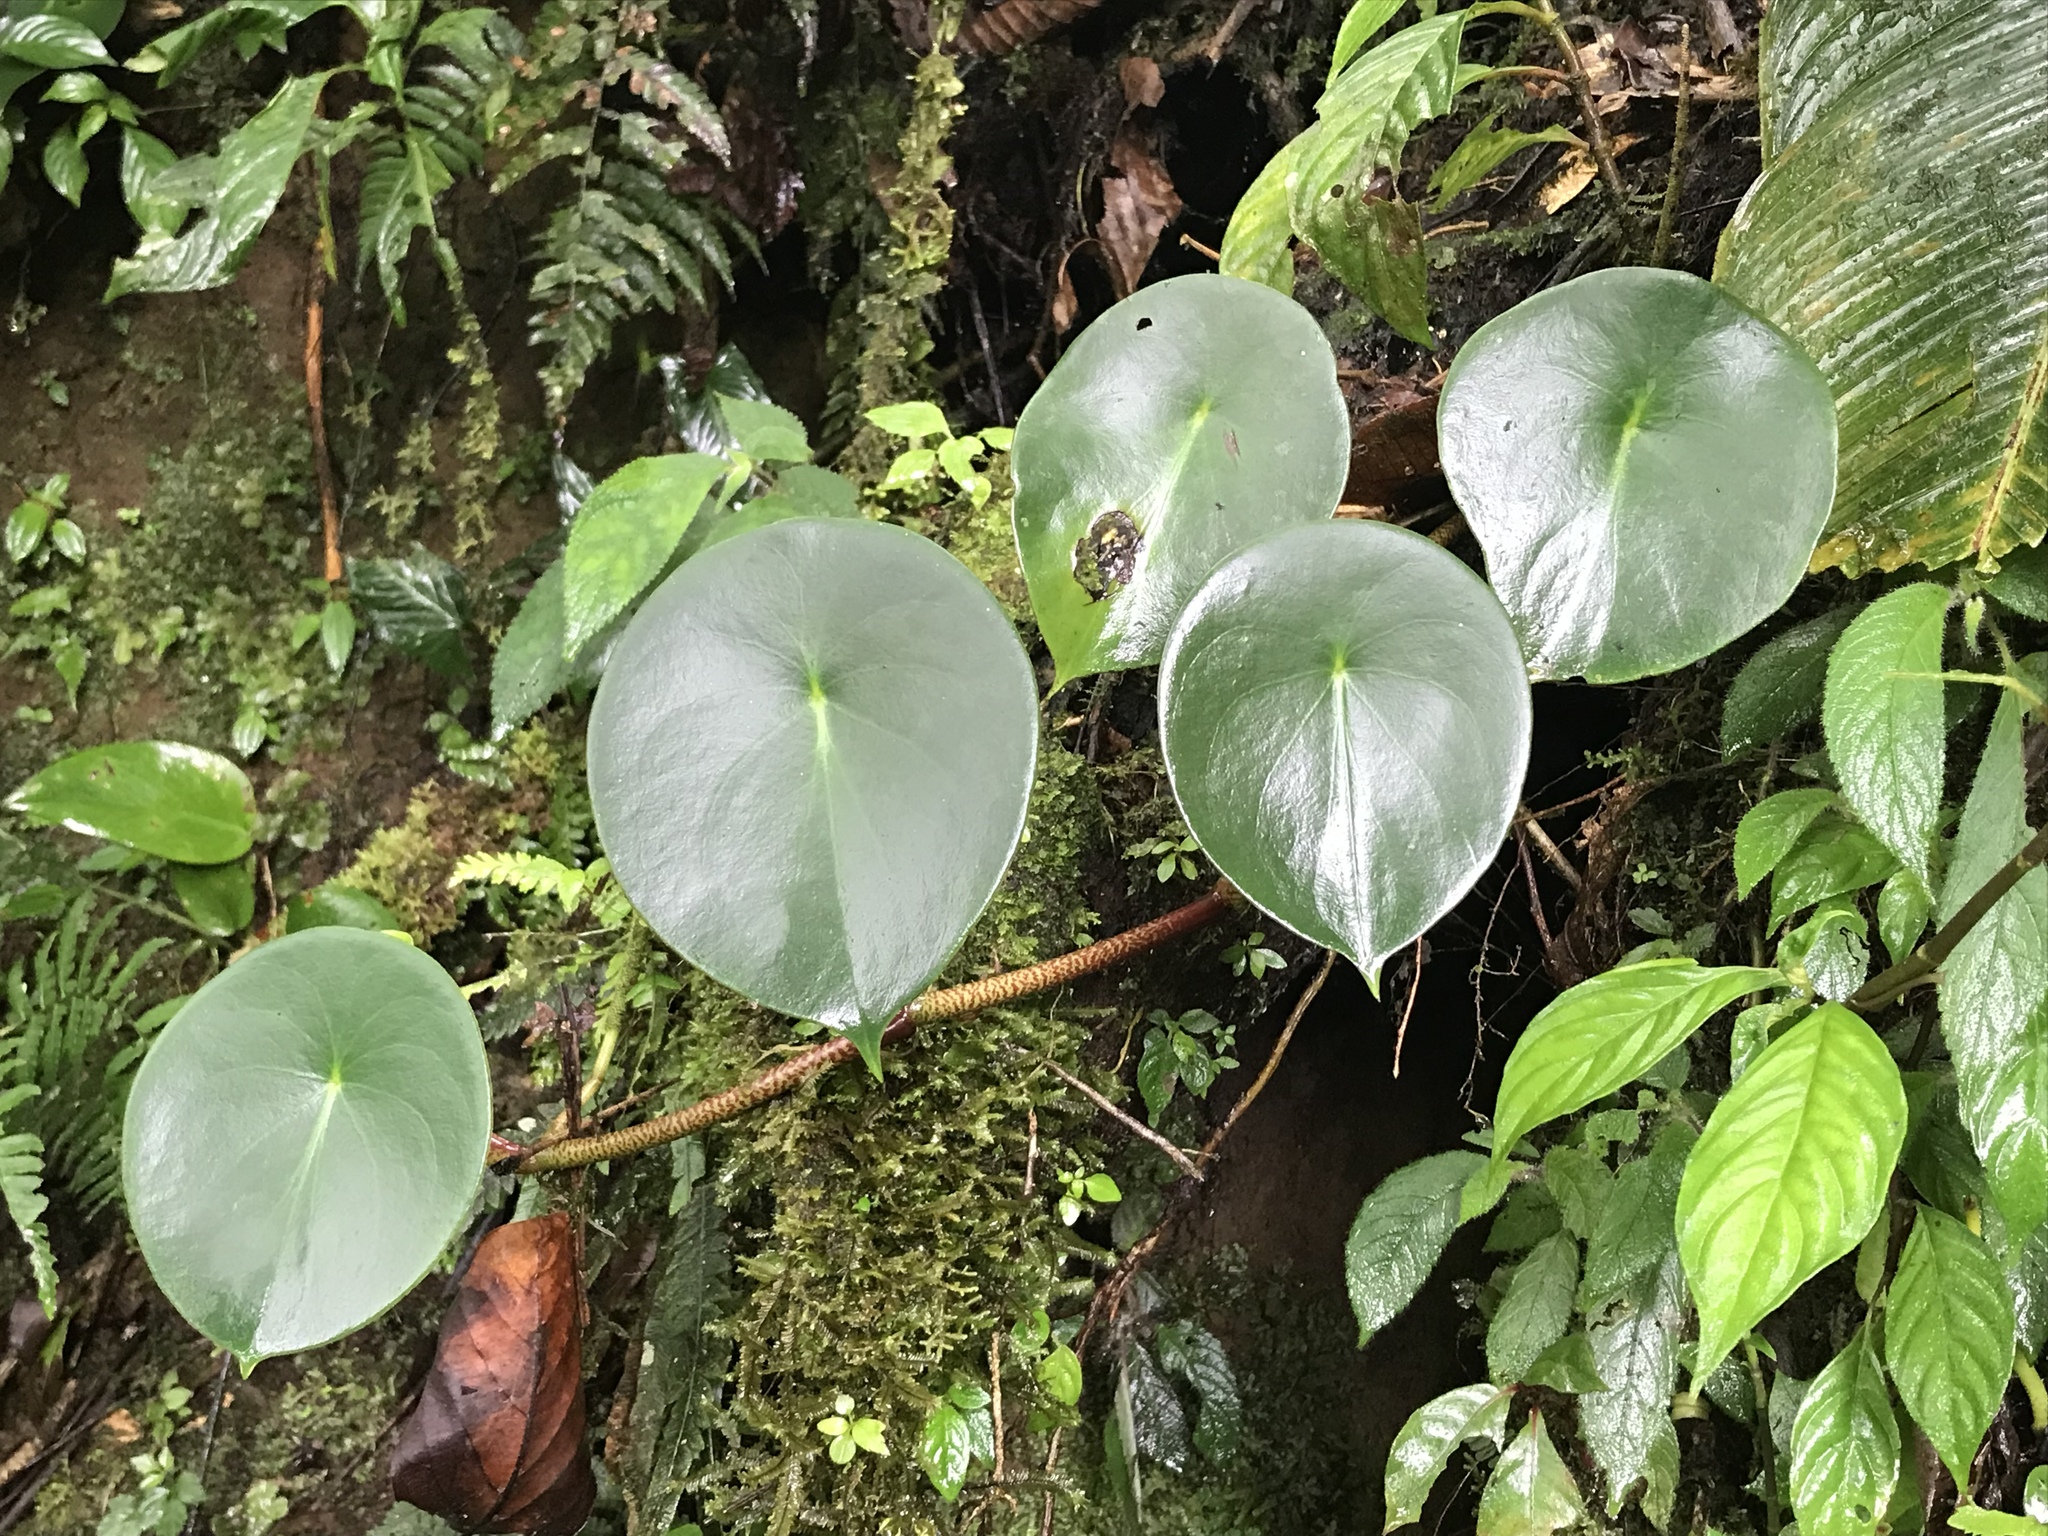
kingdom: Plantae
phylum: Tracheophyta
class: Magnoliopsida
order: Piperales
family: Piperaceae
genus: Peperomia
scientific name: Peperomia hernandiifolia
